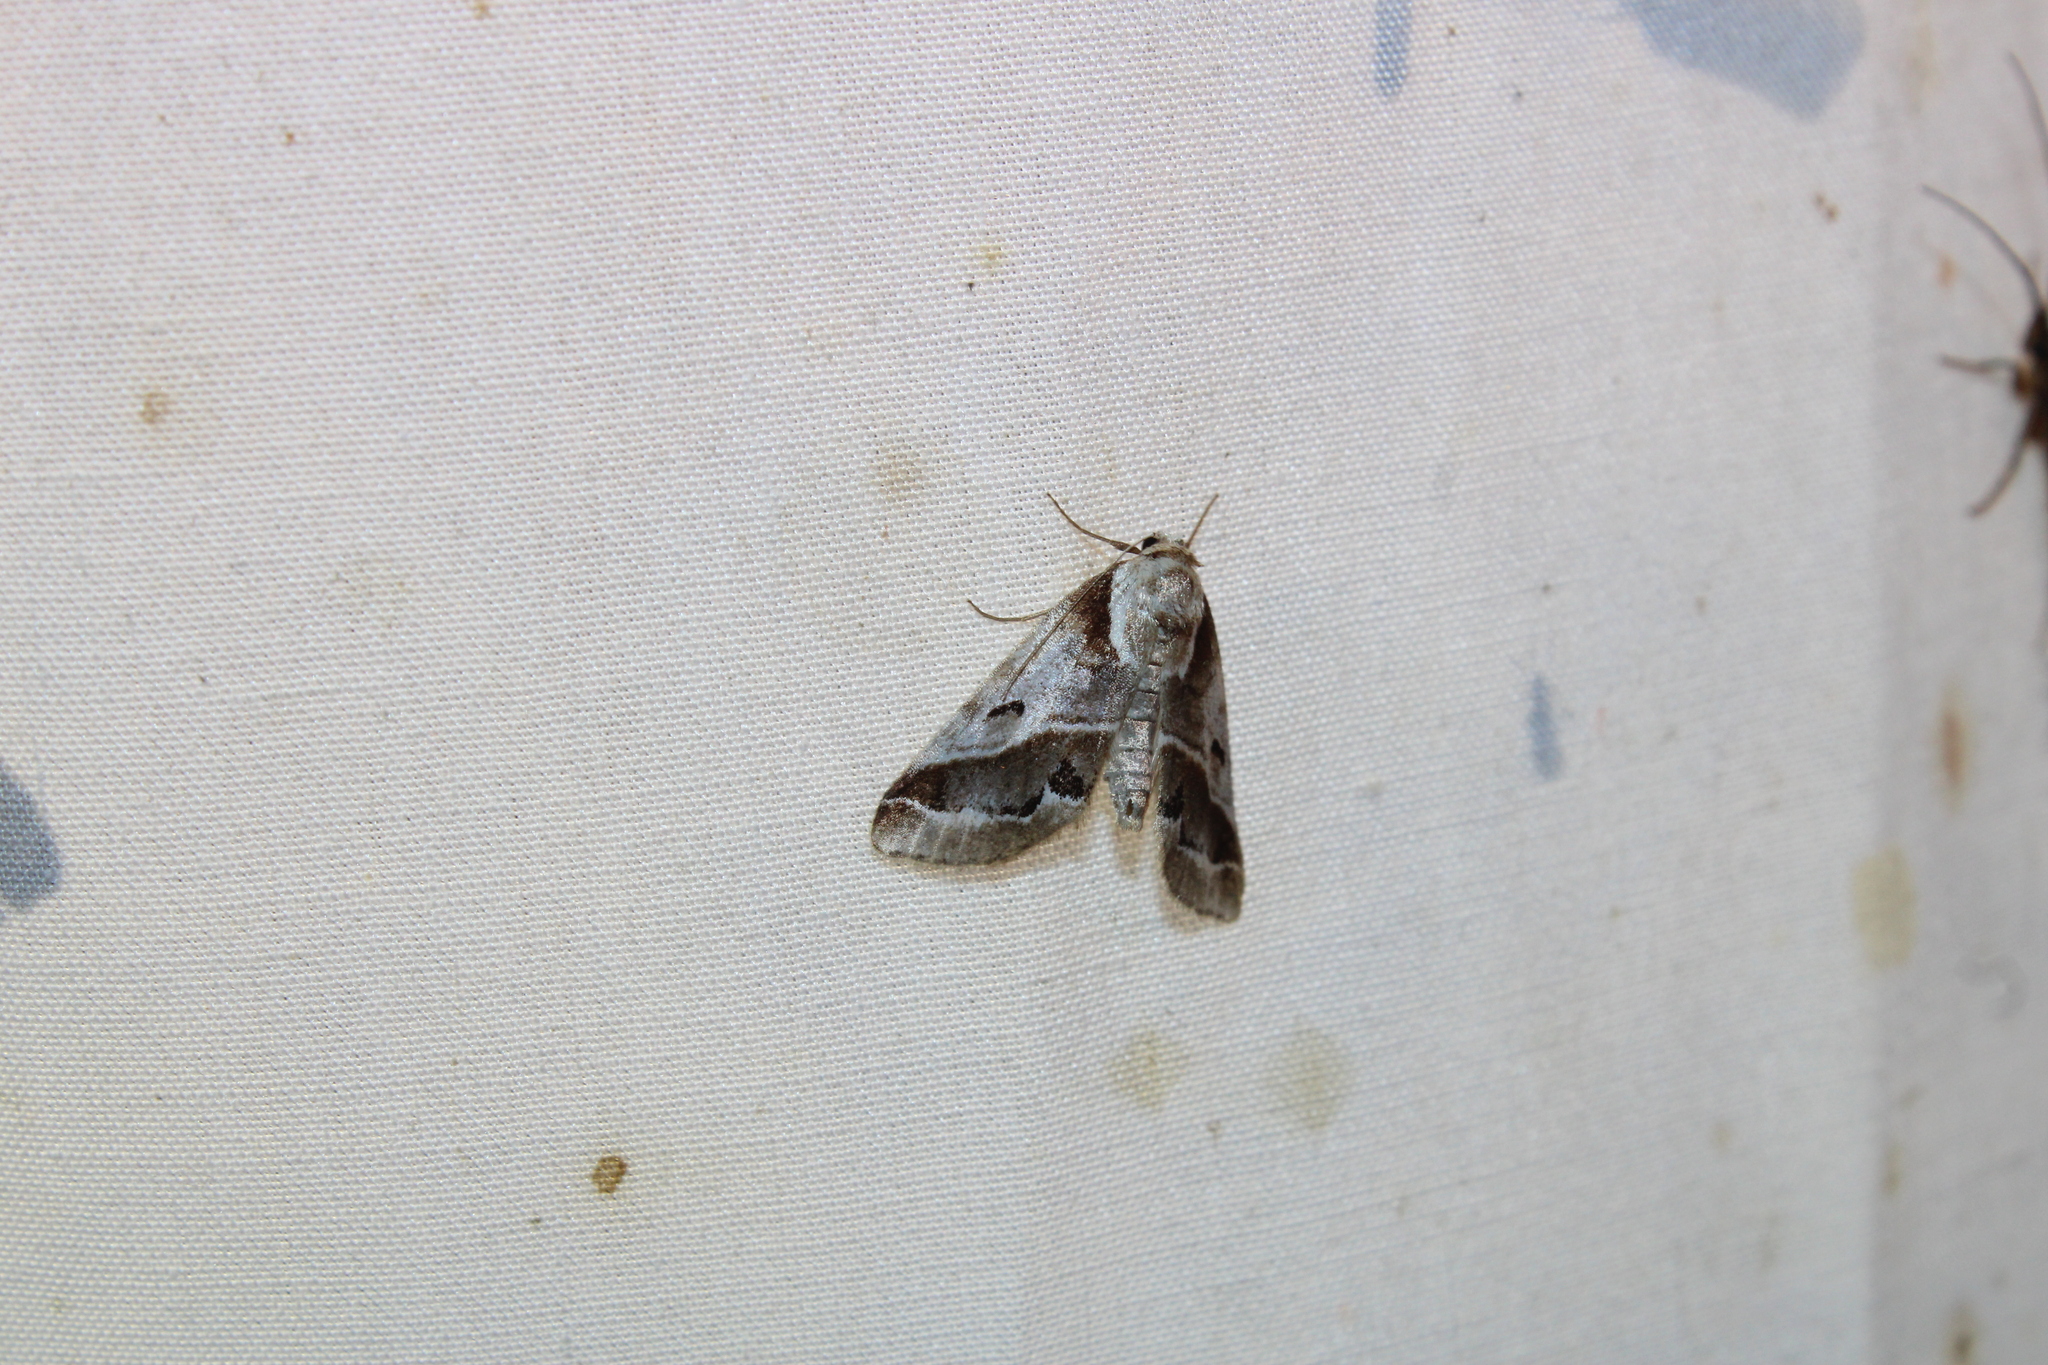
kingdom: Animalia
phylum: Arthropoda
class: Insecta
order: Lepidoptera
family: Nolidae
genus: Baileya
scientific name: Baileya doubledayi
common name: Doubleday's baileya moth
